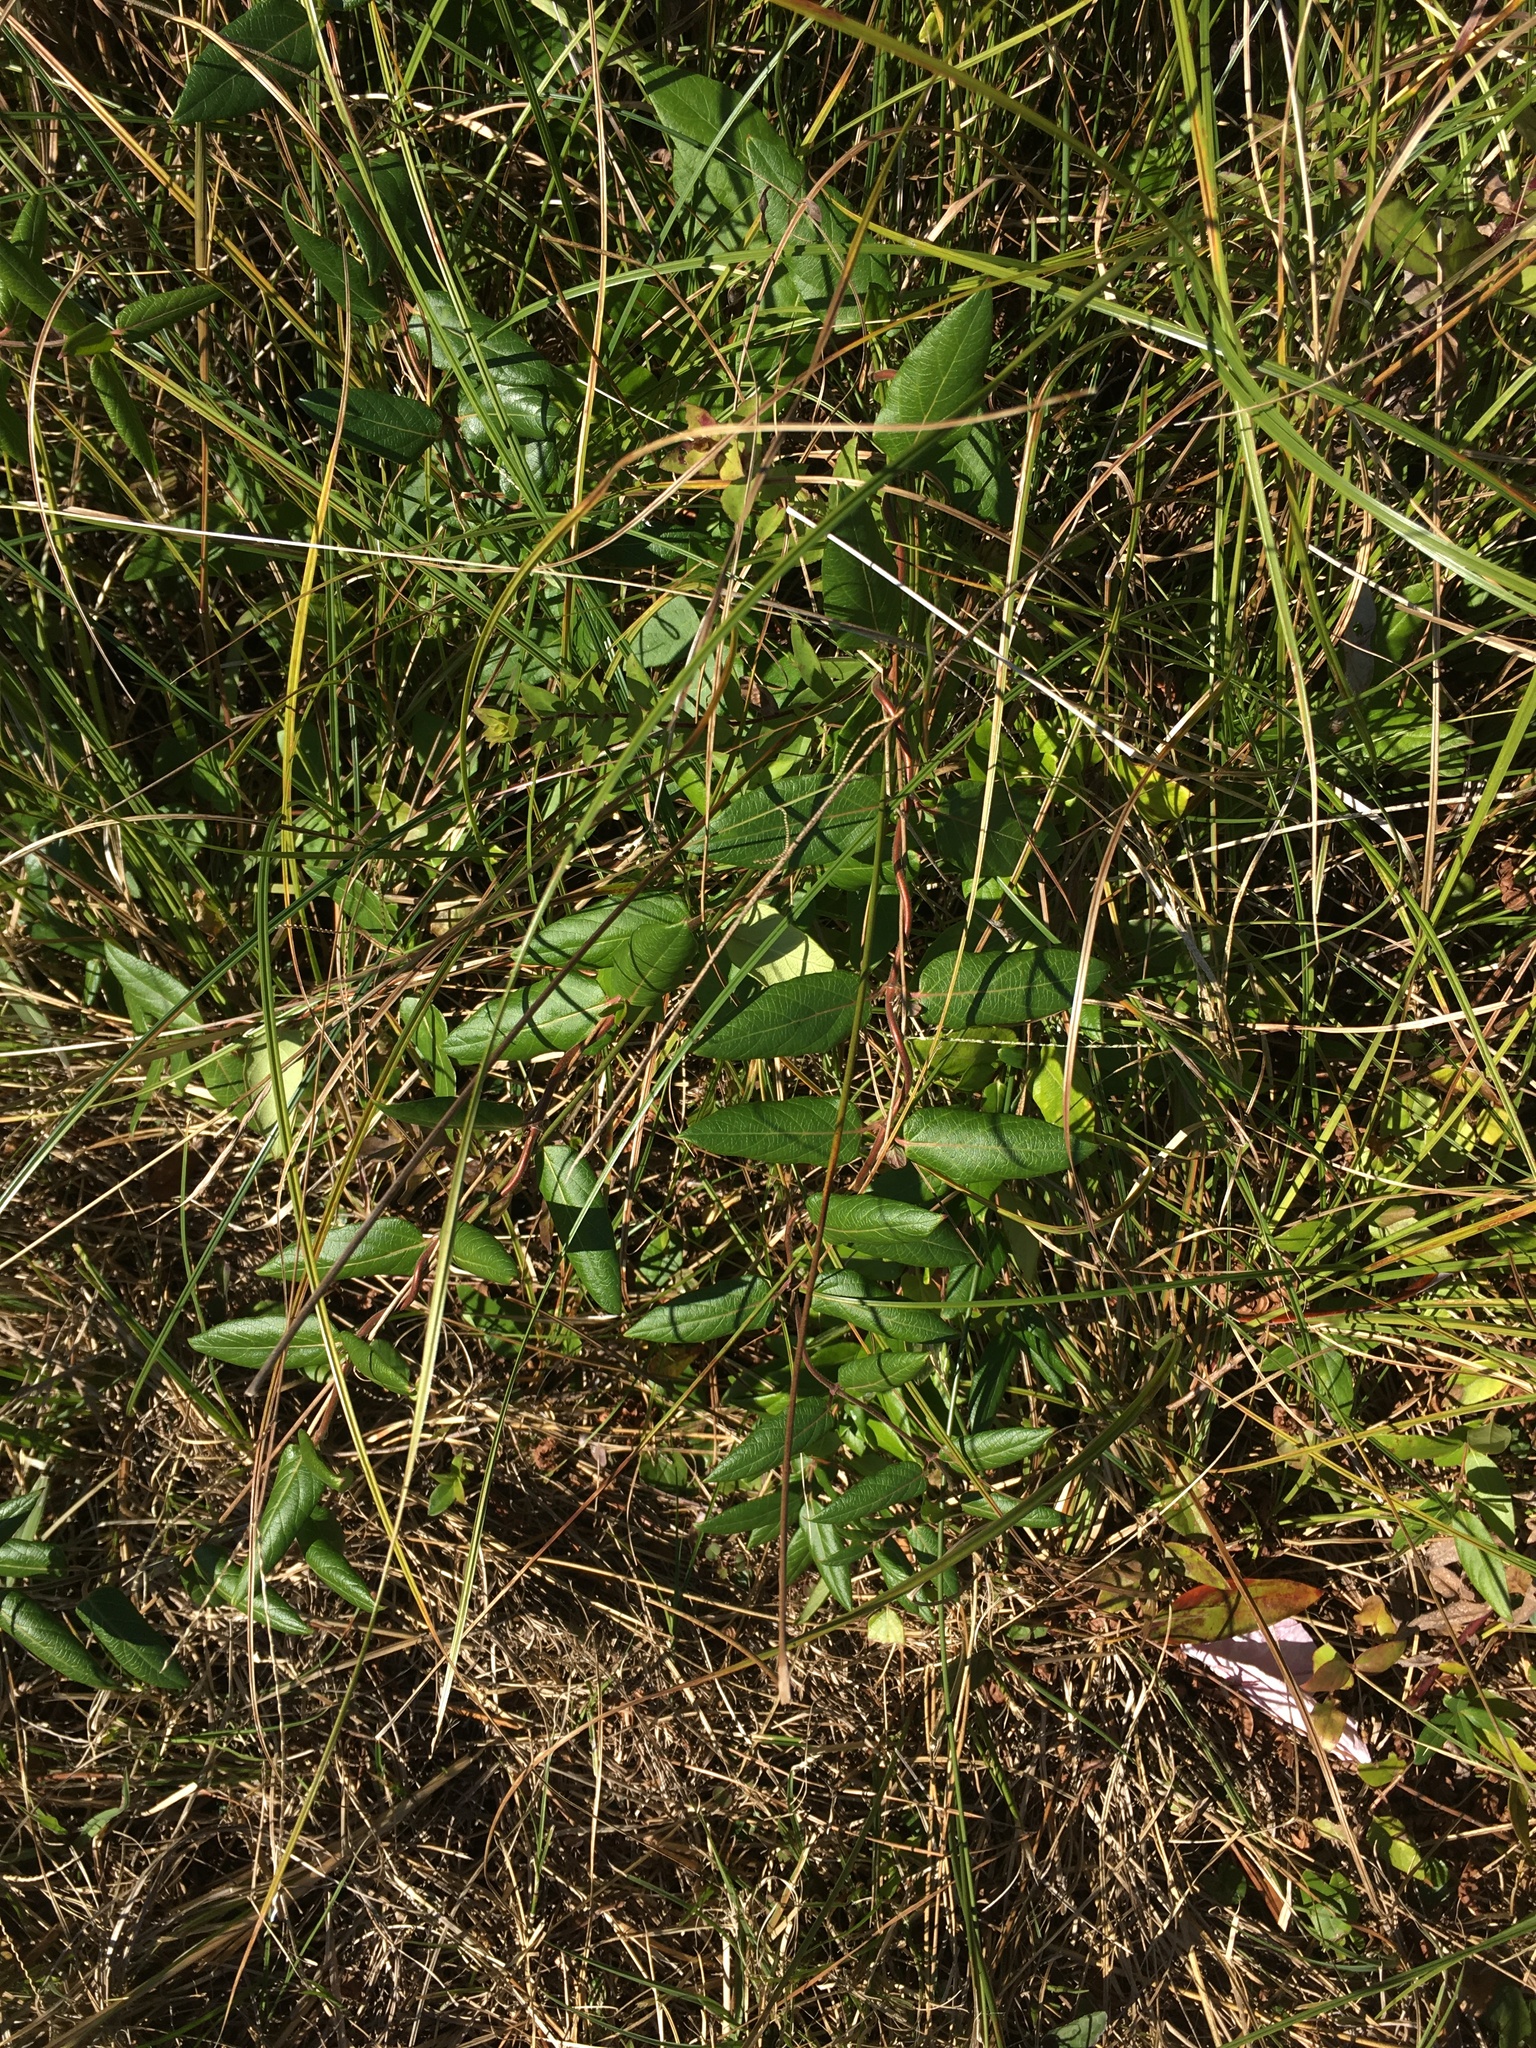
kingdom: Plantae
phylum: Tracheophyta
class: Magnoliopsida
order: Dipsacales
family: Caprifoliaceae
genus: Lonicera
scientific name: Lonicera japonica
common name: Japanese honeysuckle
